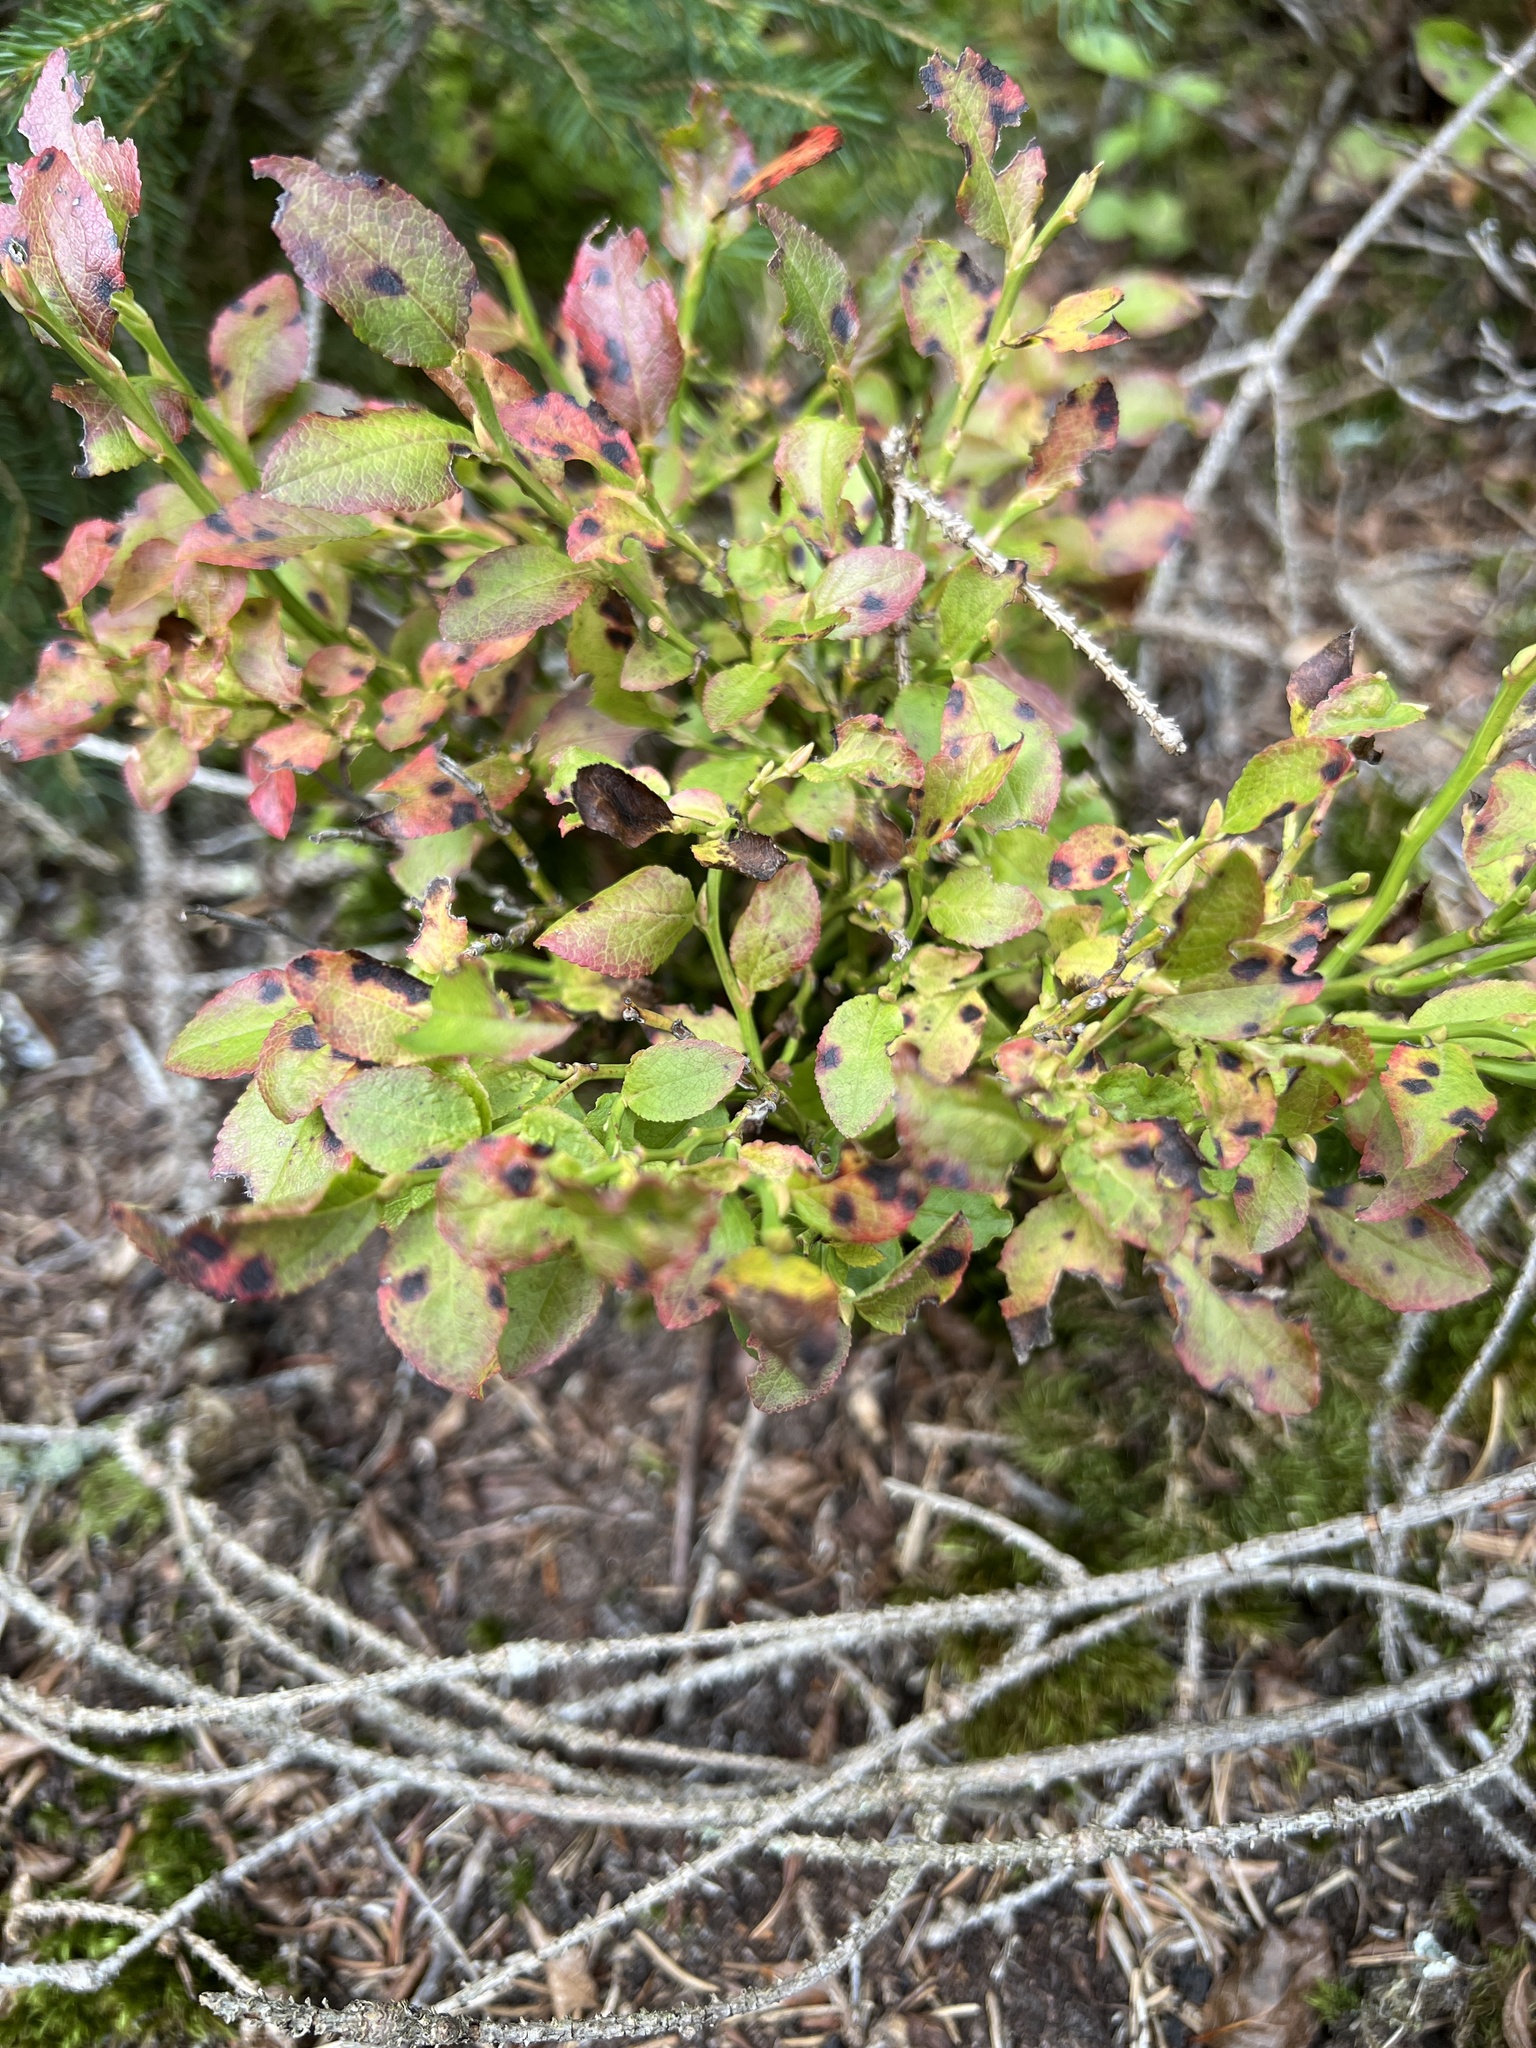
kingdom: Plantae
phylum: Tracheophyta
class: Magnoliopsida
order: Ericales
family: Ericaceae
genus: Vaccinium
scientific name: Vaccinium myrtillus
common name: Bilberry
